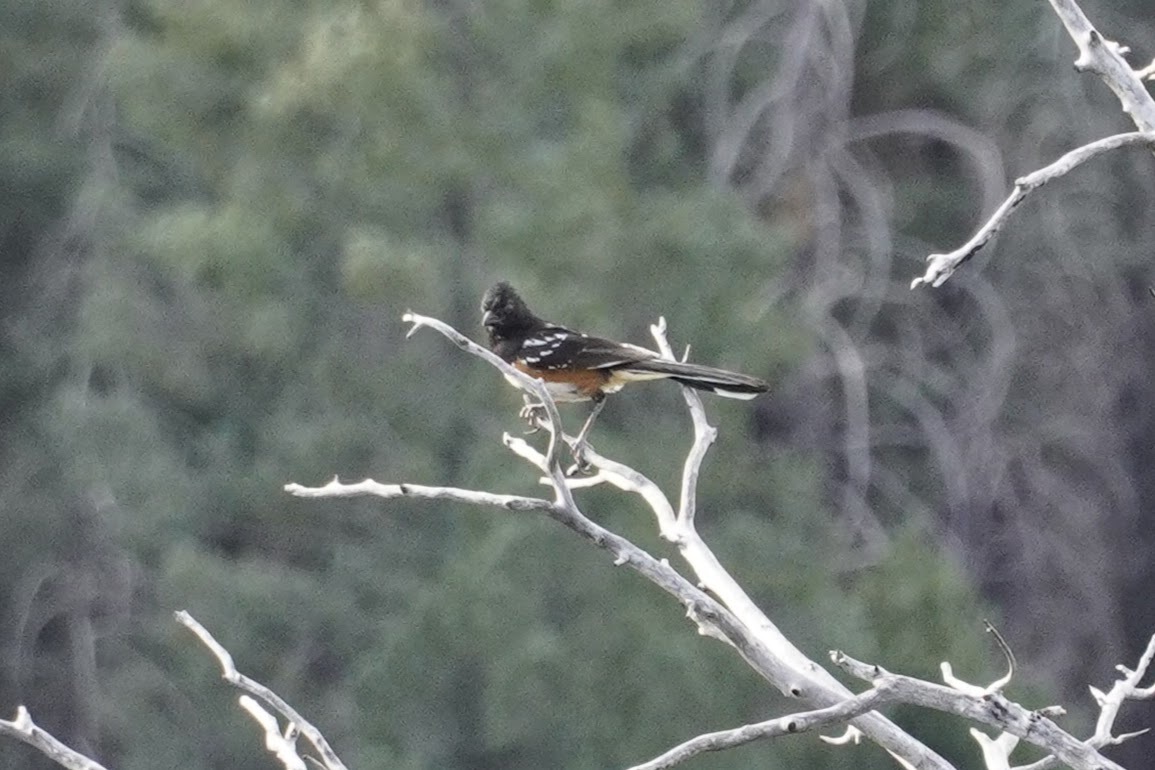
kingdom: Animalia
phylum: Chordata
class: Aves
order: Passeriformes
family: Passerellidae
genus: Pipilo
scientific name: Pipilo maculatus
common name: Spotted towhee
